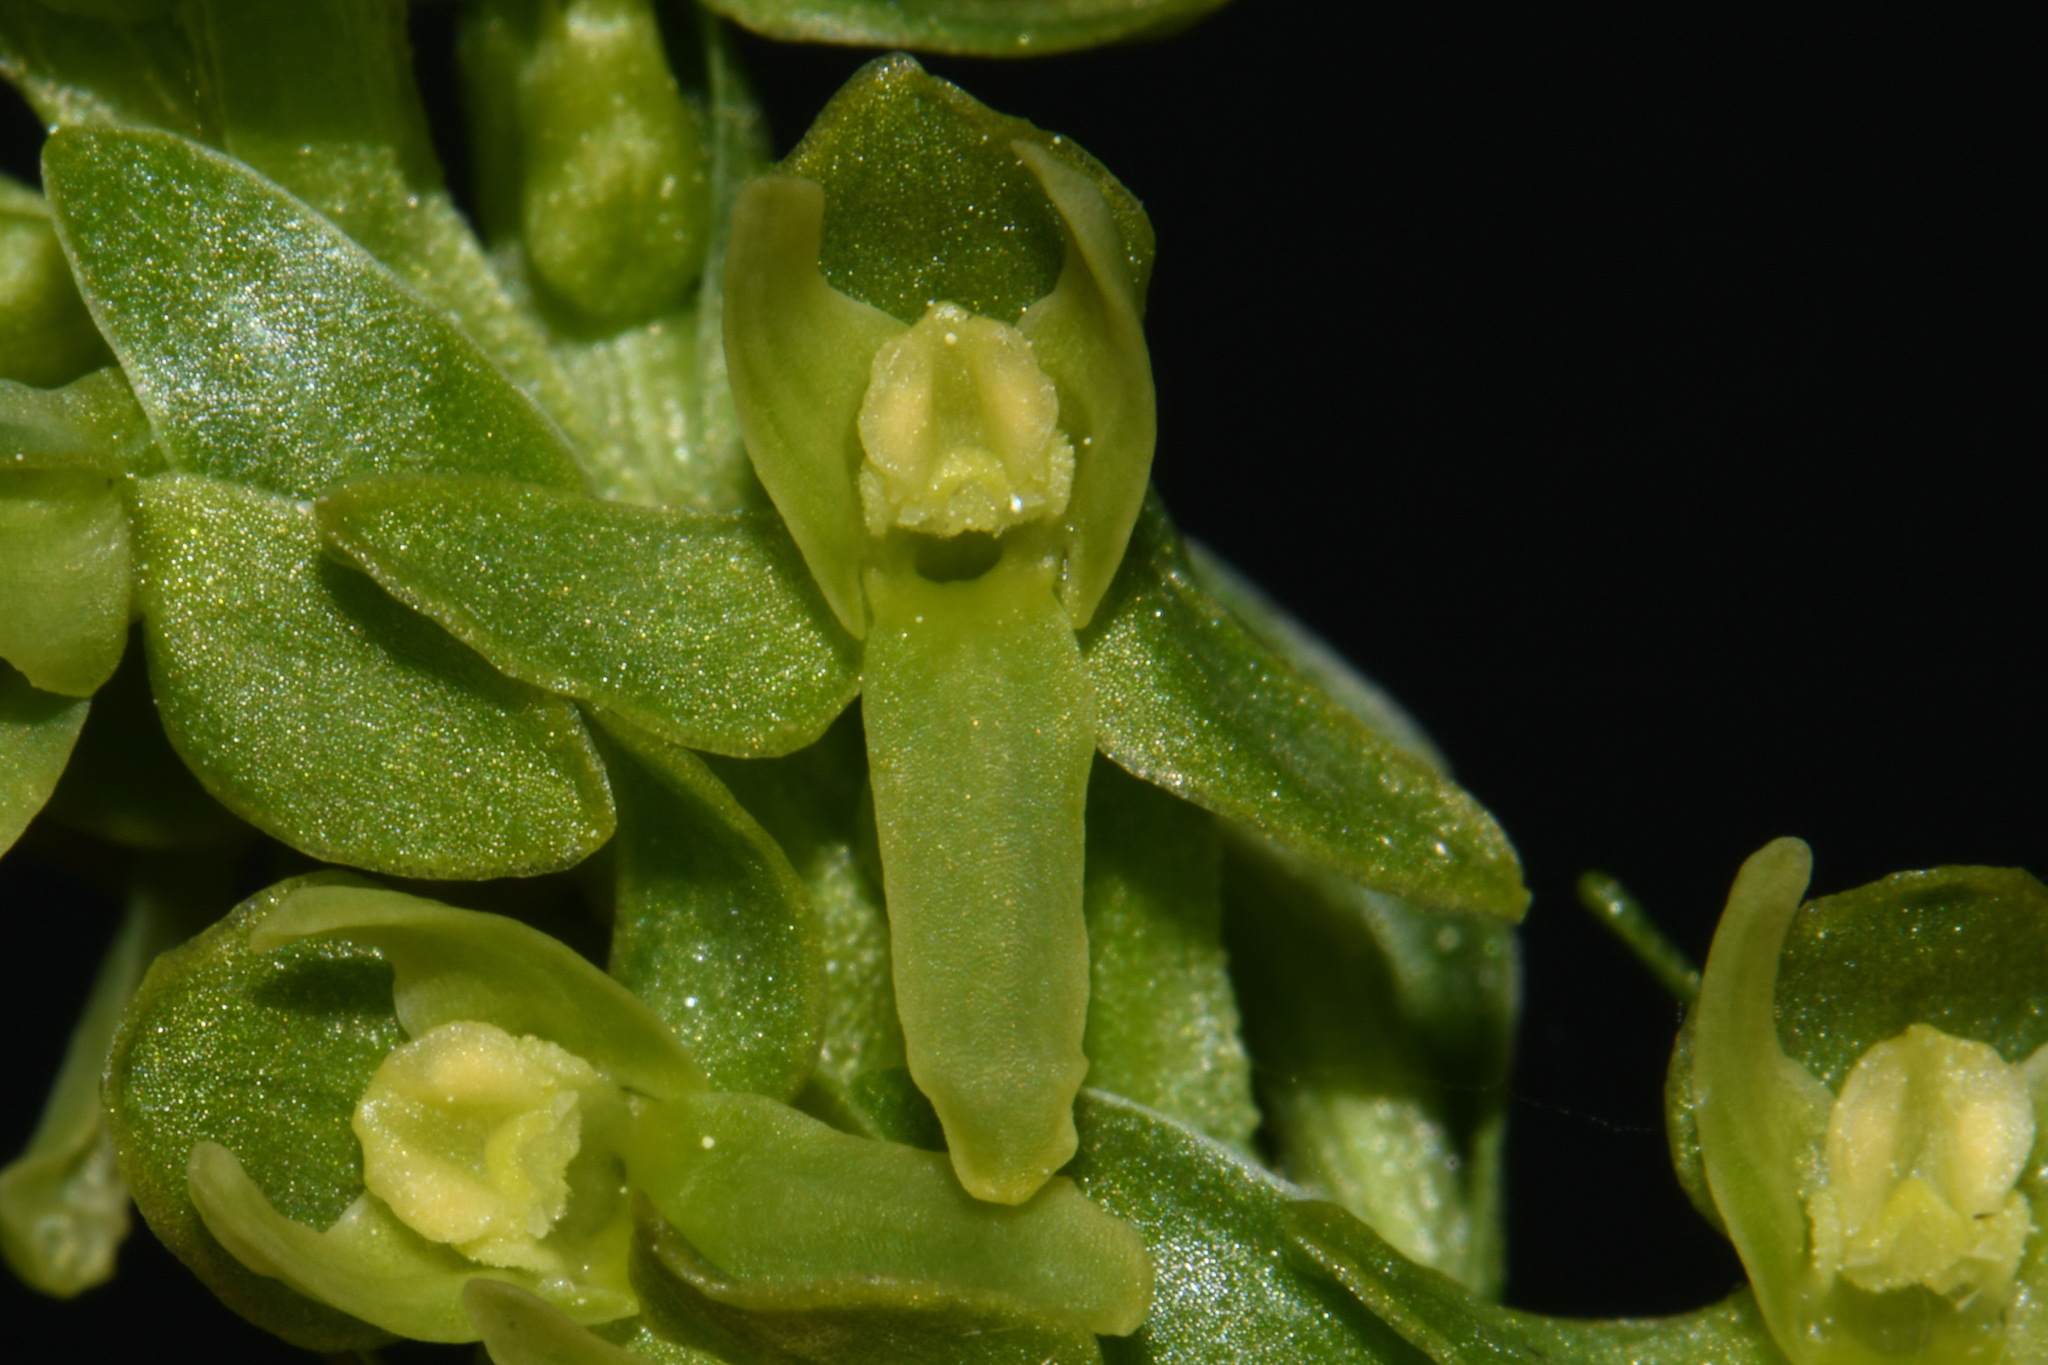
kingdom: Plantae
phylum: Tracheophyta
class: Liliopsida
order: Asparagales
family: Orchidaceae
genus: Platanthera
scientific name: Platanthera stricta
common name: Slender bog orchid
